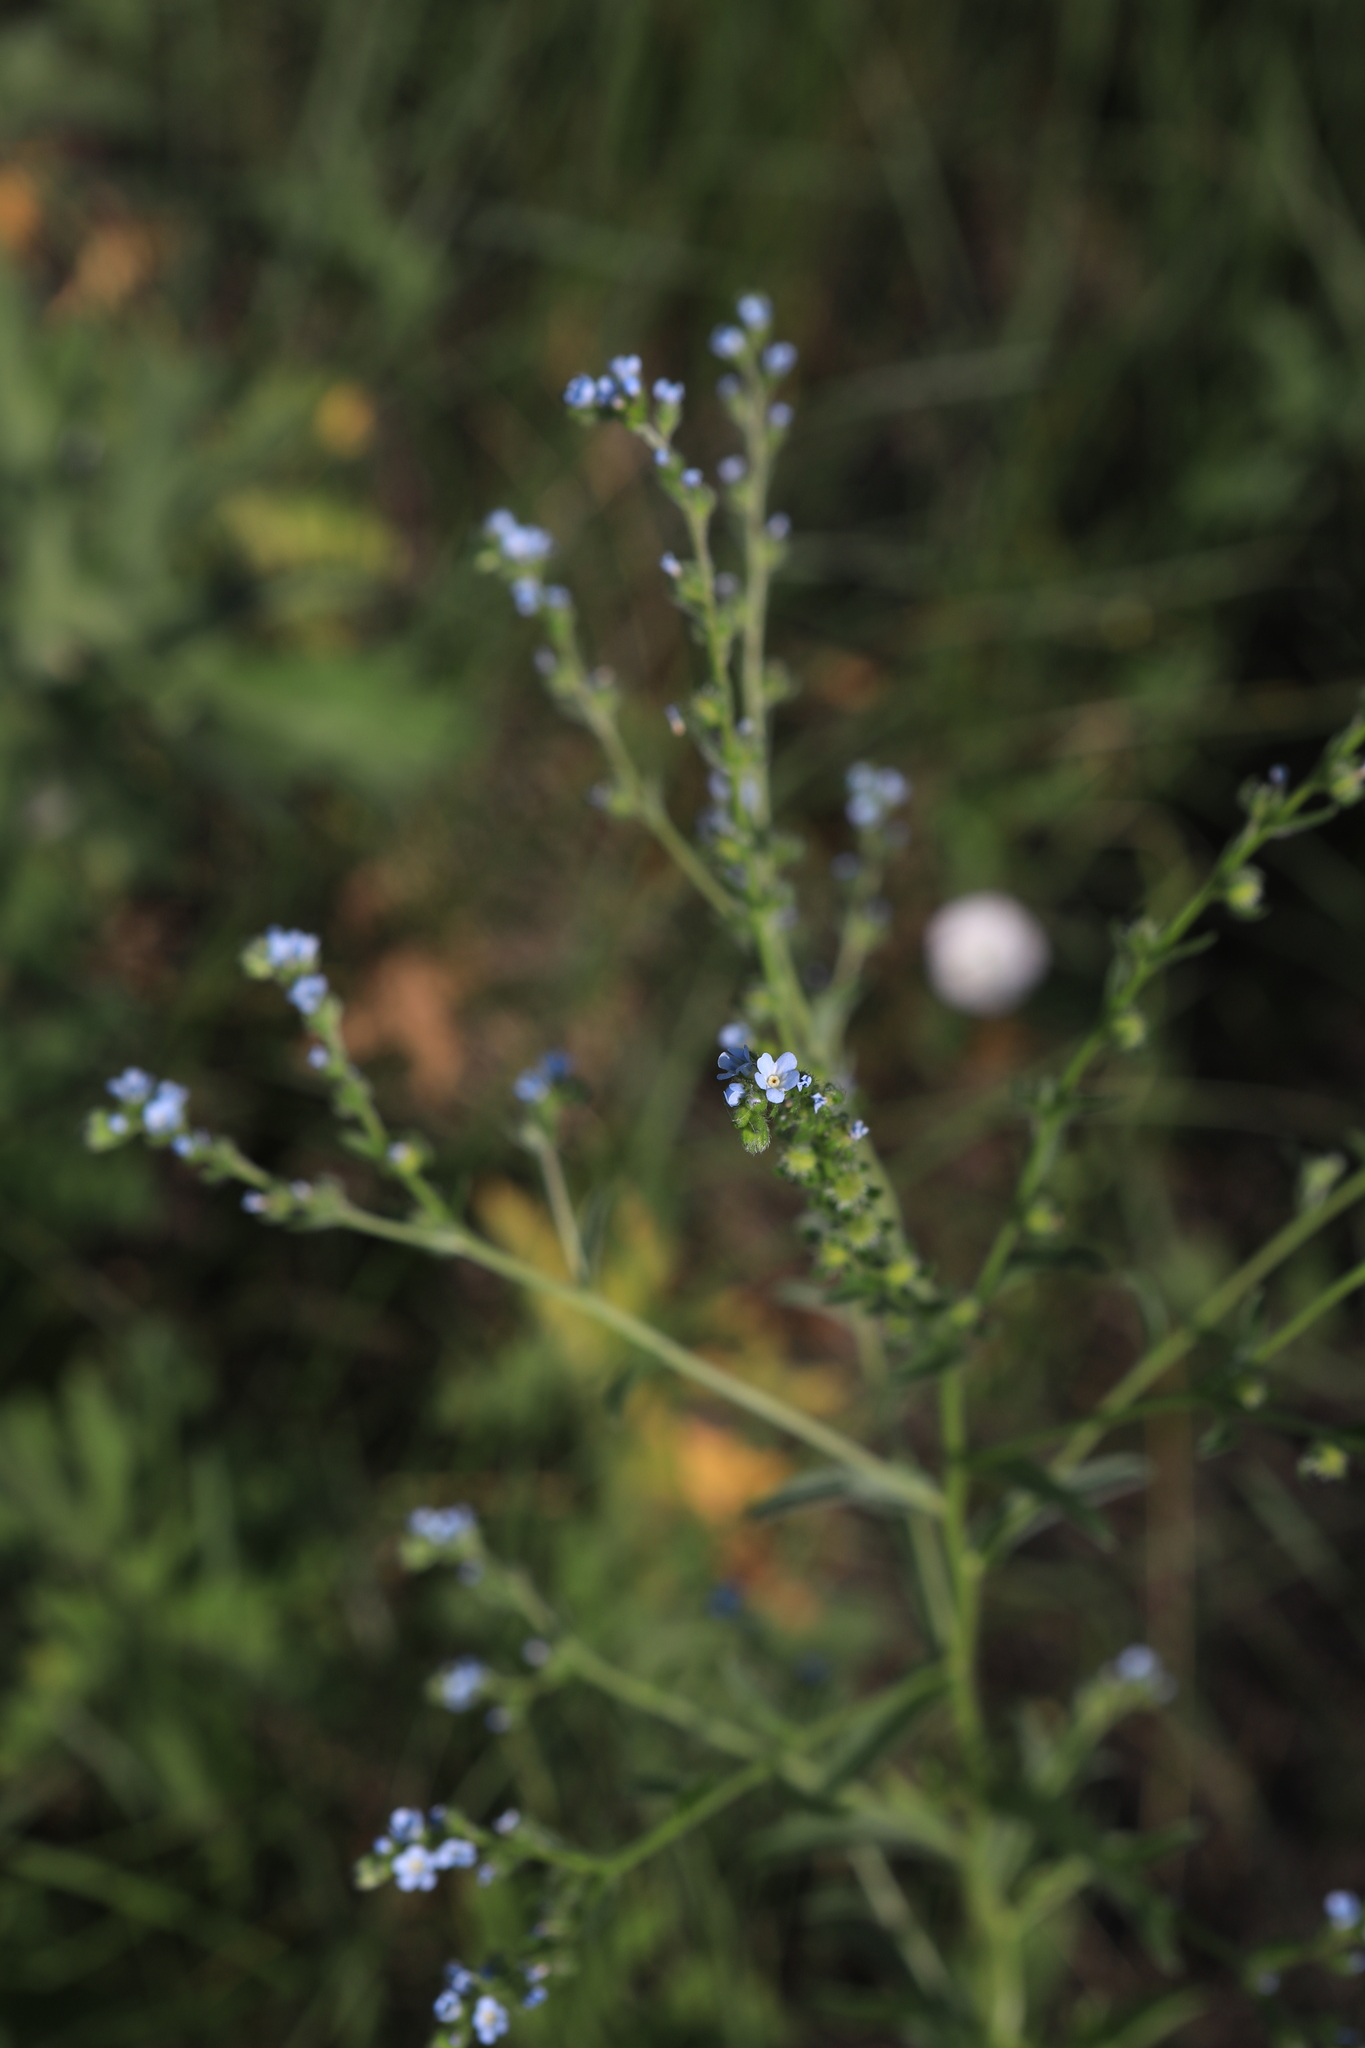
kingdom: Plantae
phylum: Tracheophyta
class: Magnoliopsida
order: Boraginales
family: Boraginaceae
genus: Lappula
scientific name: Lappula squarrosa
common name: European stickseed
